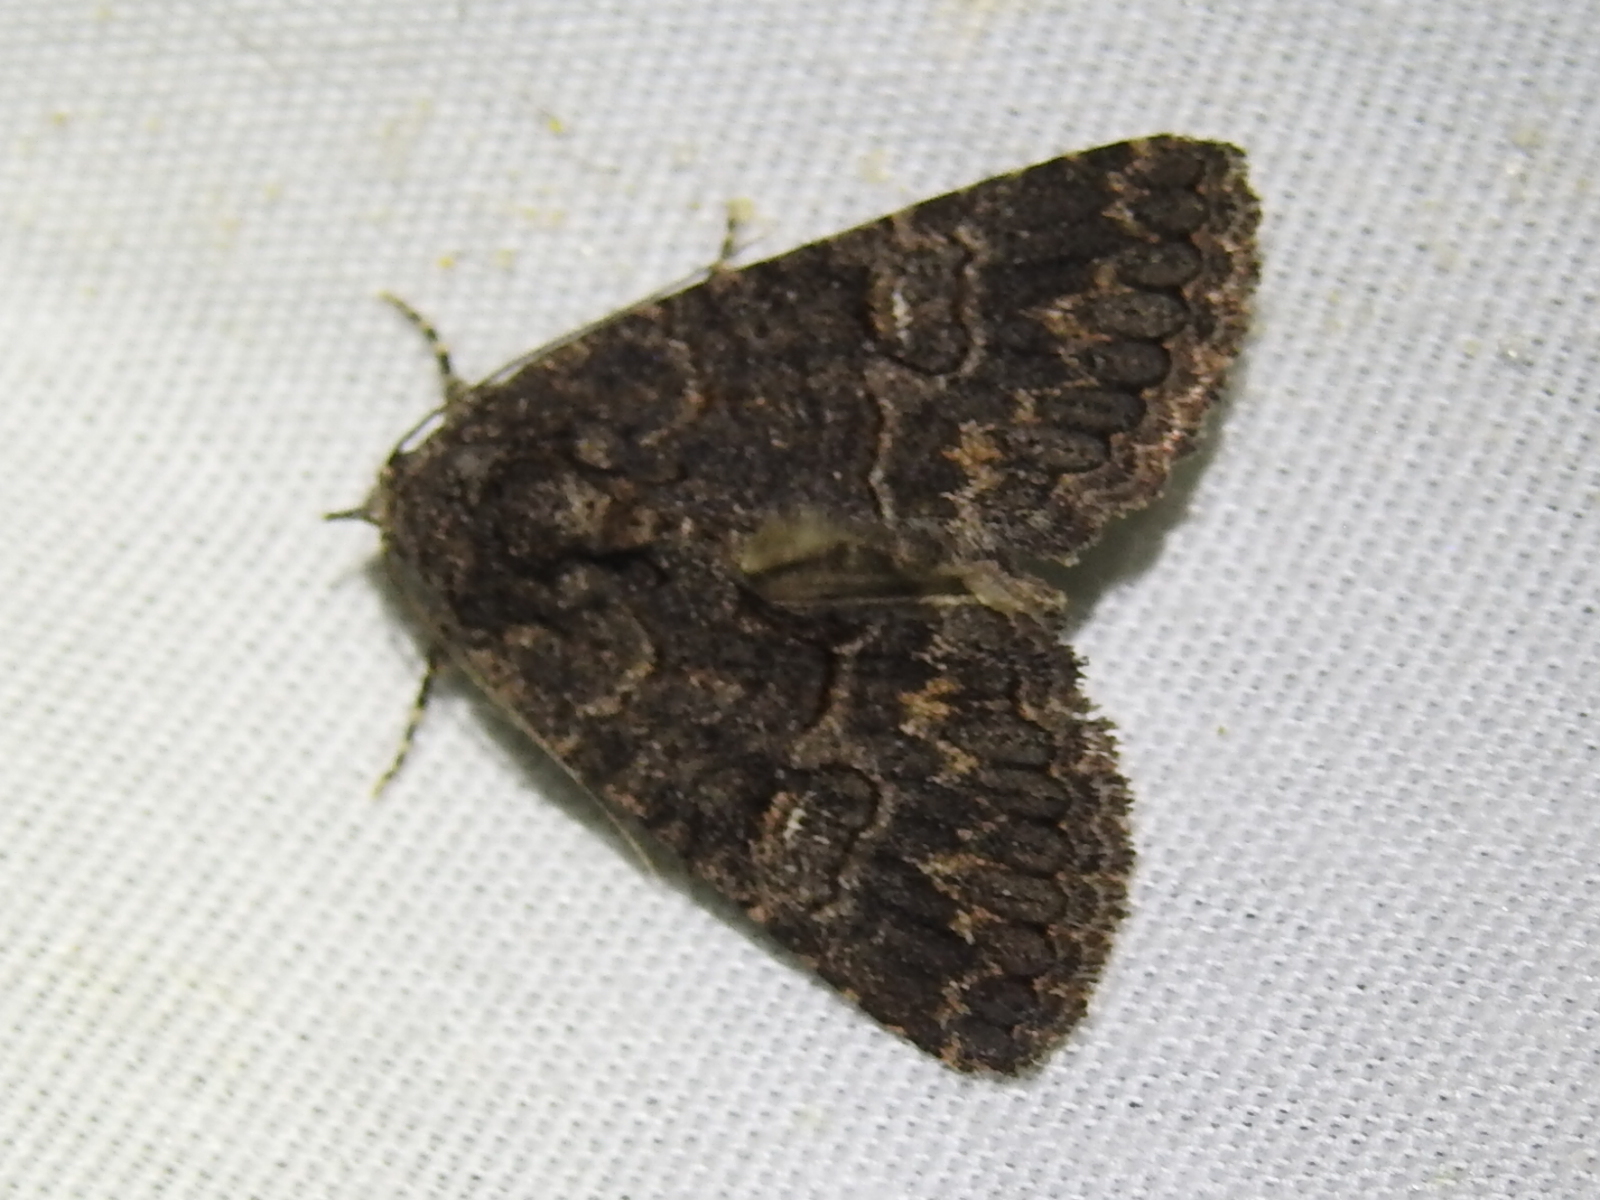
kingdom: Animalia
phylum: Arthropoda
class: Insecta
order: Lepidoptera
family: Erebidae
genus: Elousa
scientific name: Elousa mima
